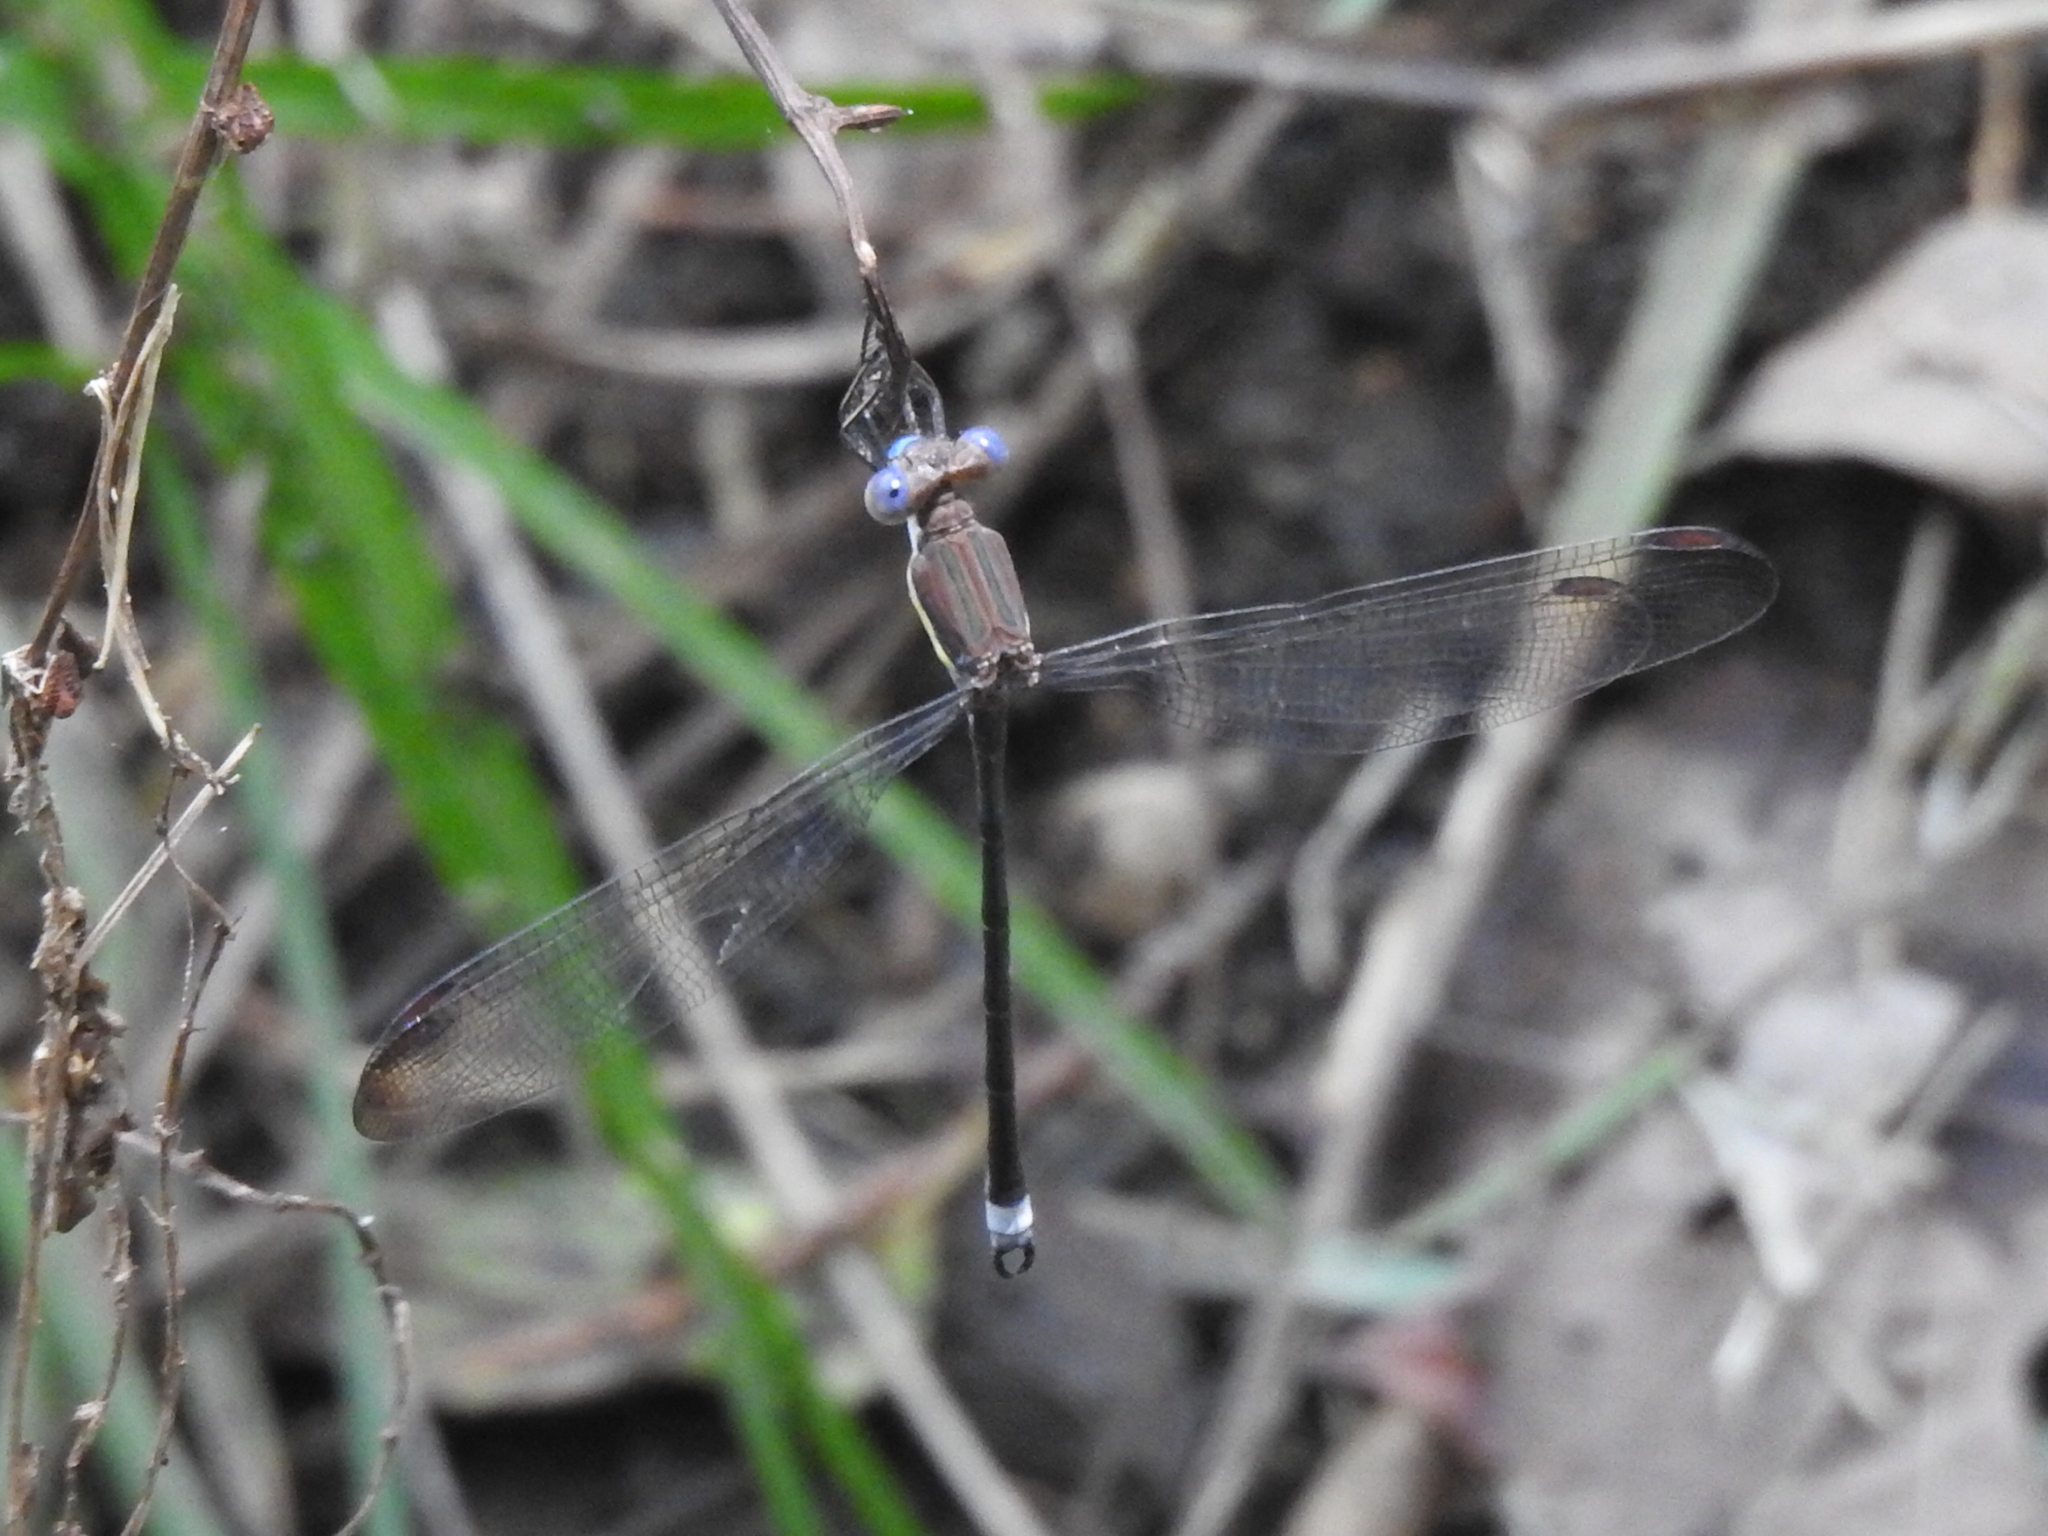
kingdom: Animalia
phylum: Arthropoda
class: Insecta
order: Odonata
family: Lestidae
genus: Archilestes
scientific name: Archilestes grandis
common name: Great spreadwing
